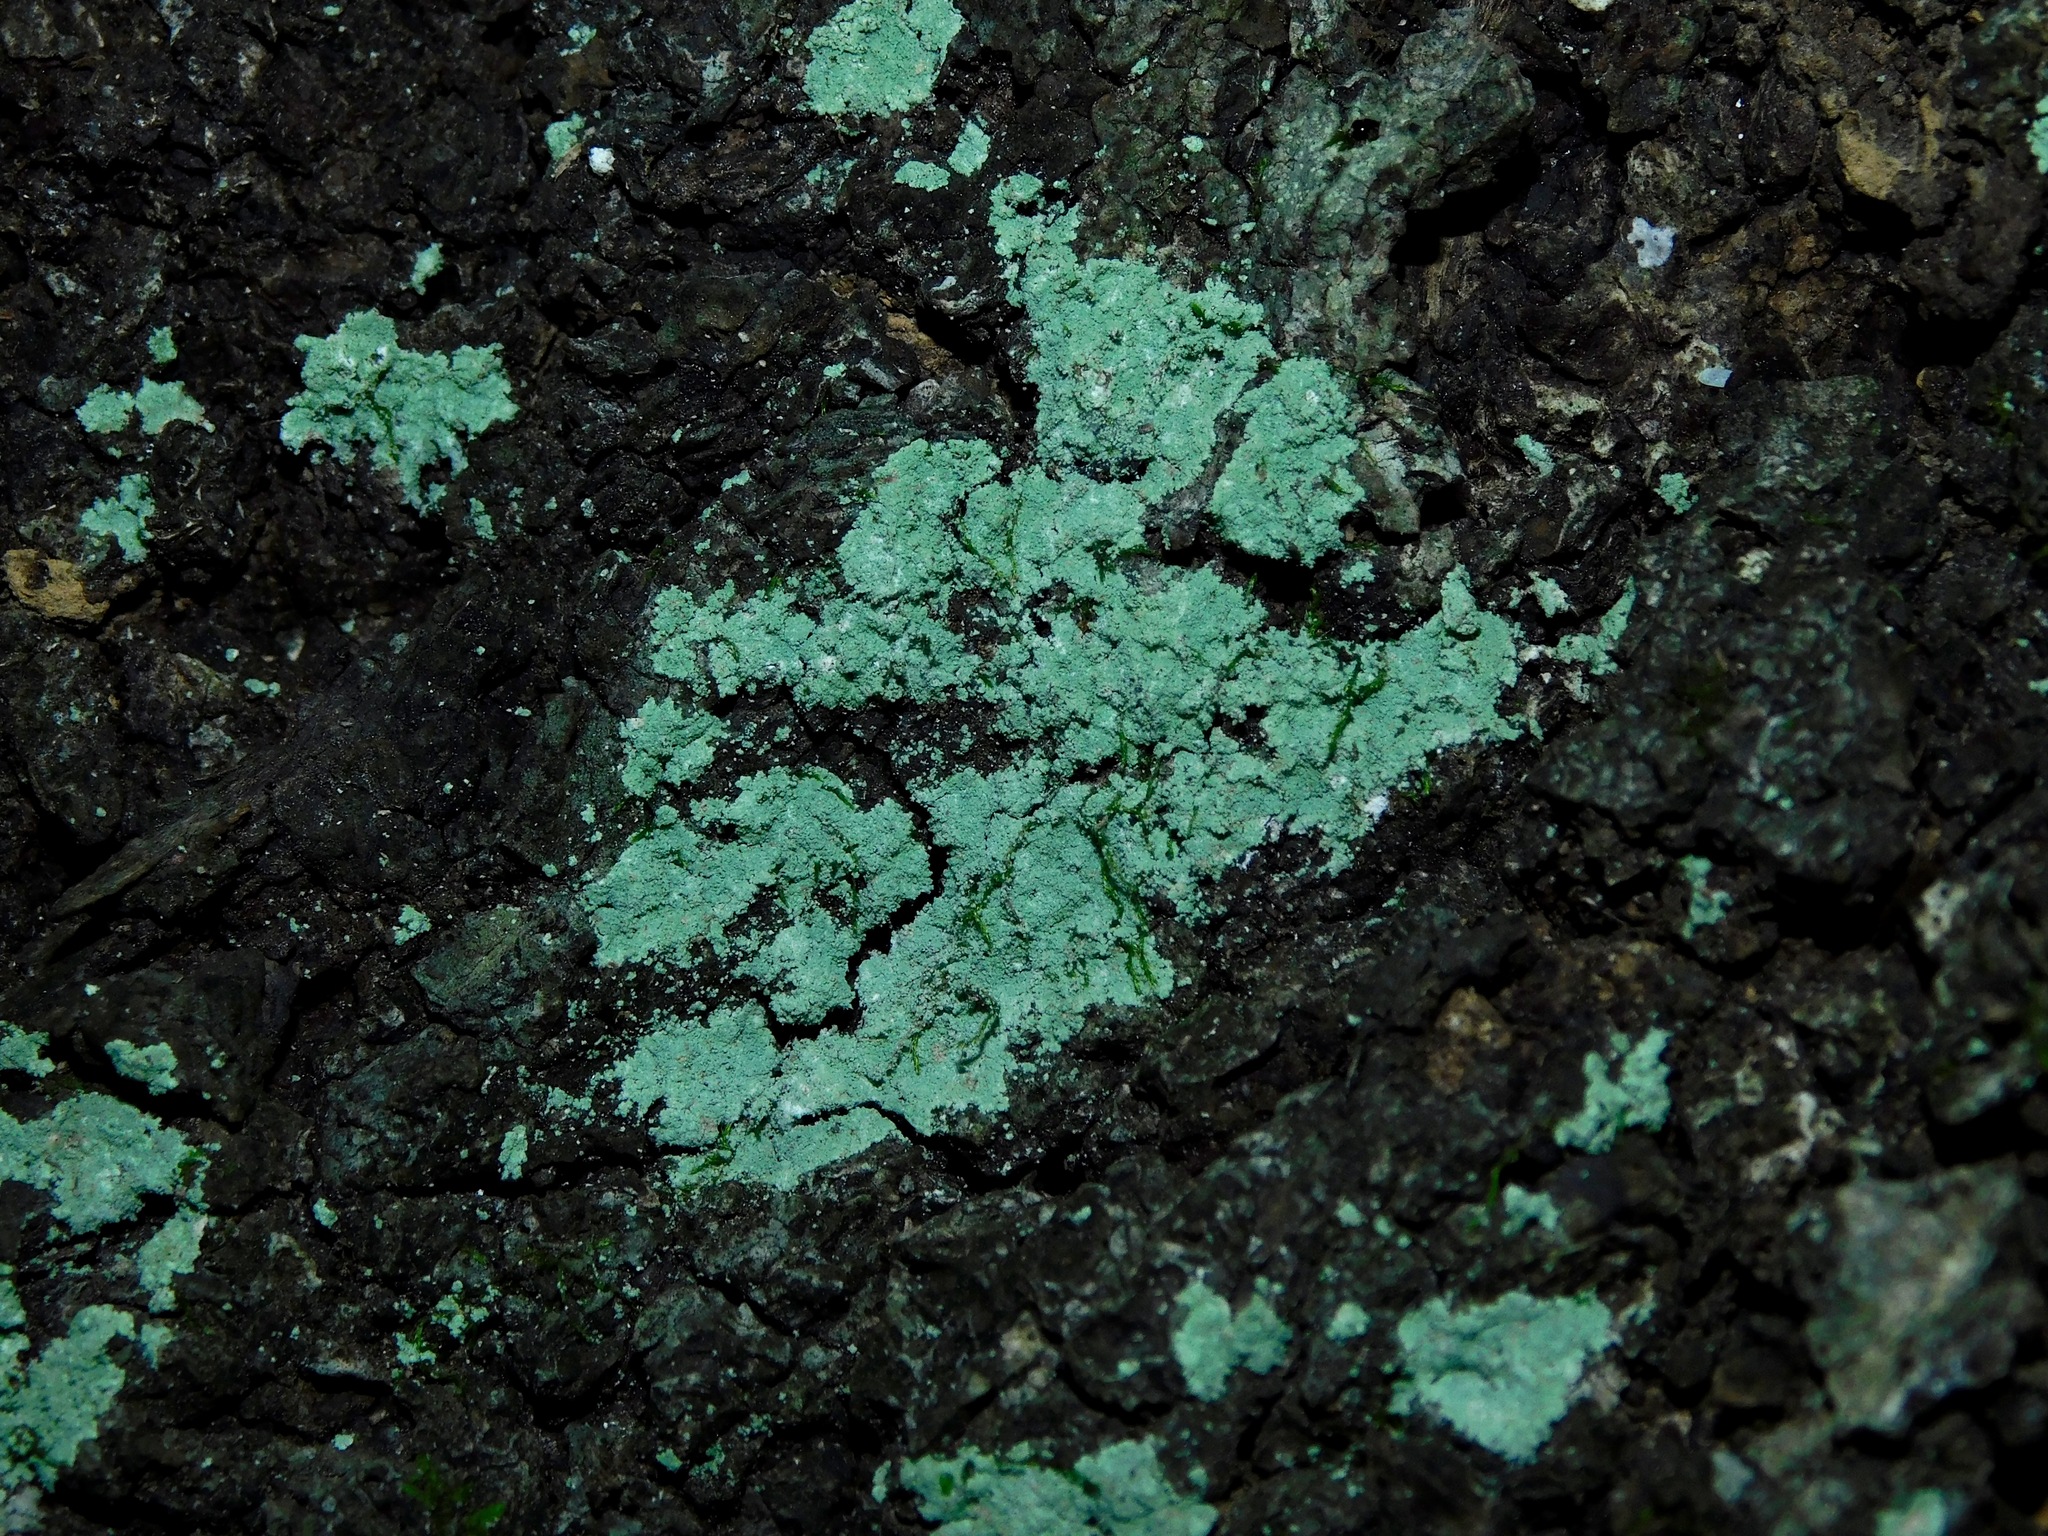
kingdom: Fungi
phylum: Ascomycota
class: Lecanoromycetes
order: Lecanorales
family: Stereocaulaceae
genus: Lepraria
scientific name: Lepraria lobificans
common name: Fluffy dust lichen
